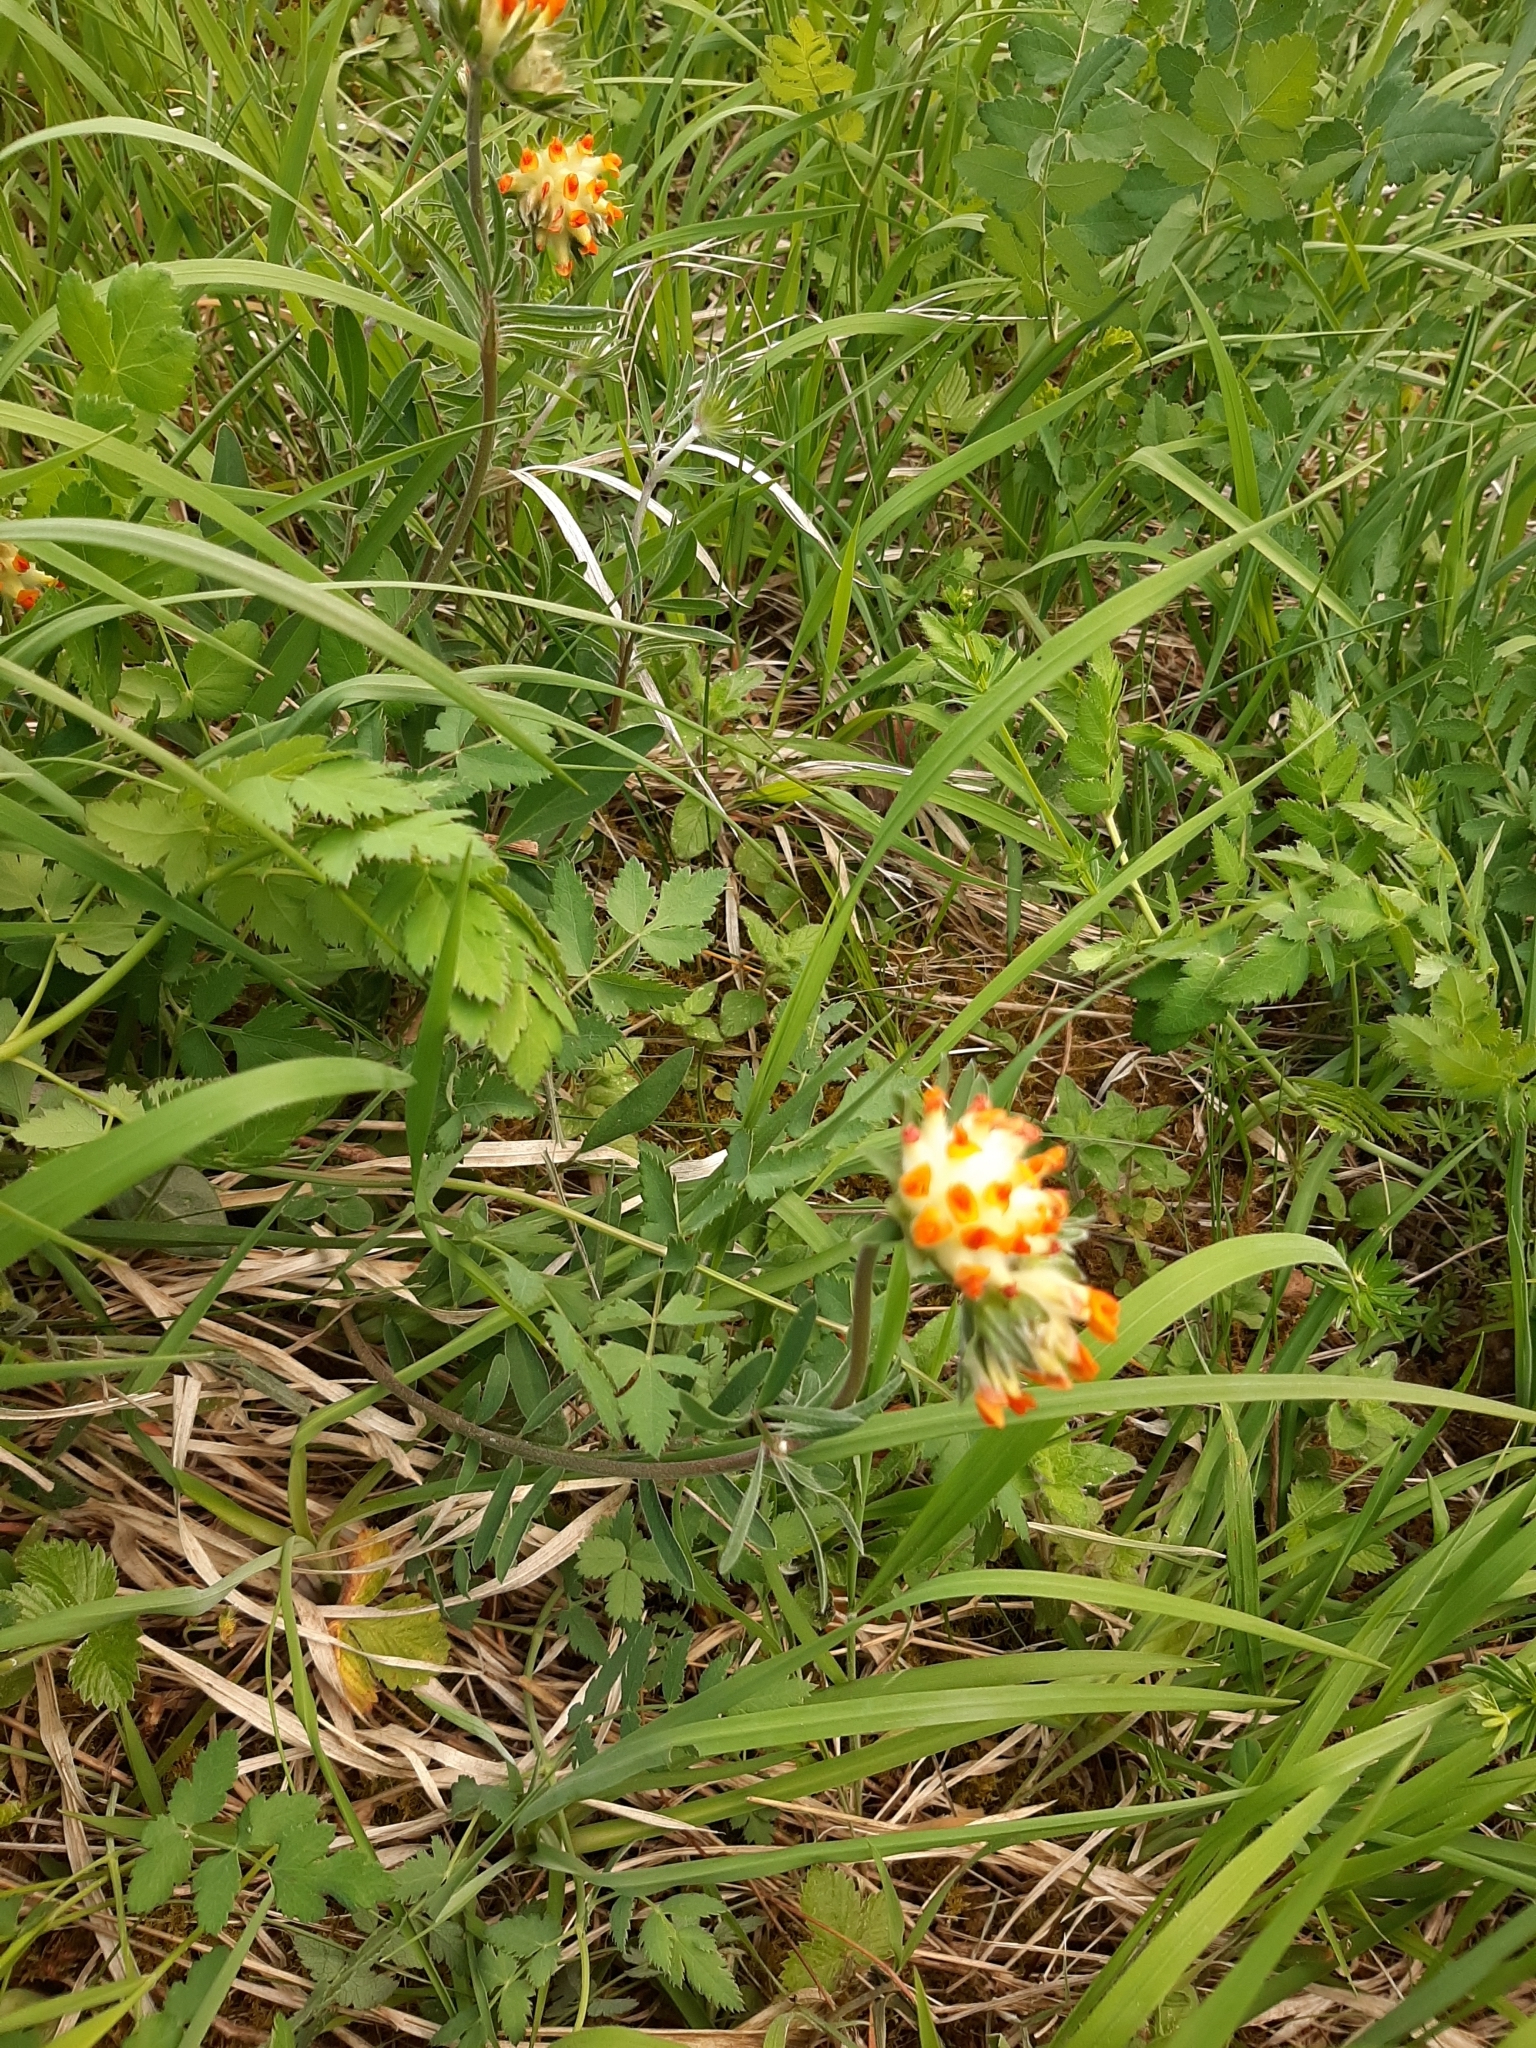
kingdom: Plantae
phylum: Tracheophyta
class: Magnoliopsida
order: Fabales
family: Fabaceae
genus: Anthyllis
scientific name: Anthyllis vulneraria
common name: Kidney vetch
